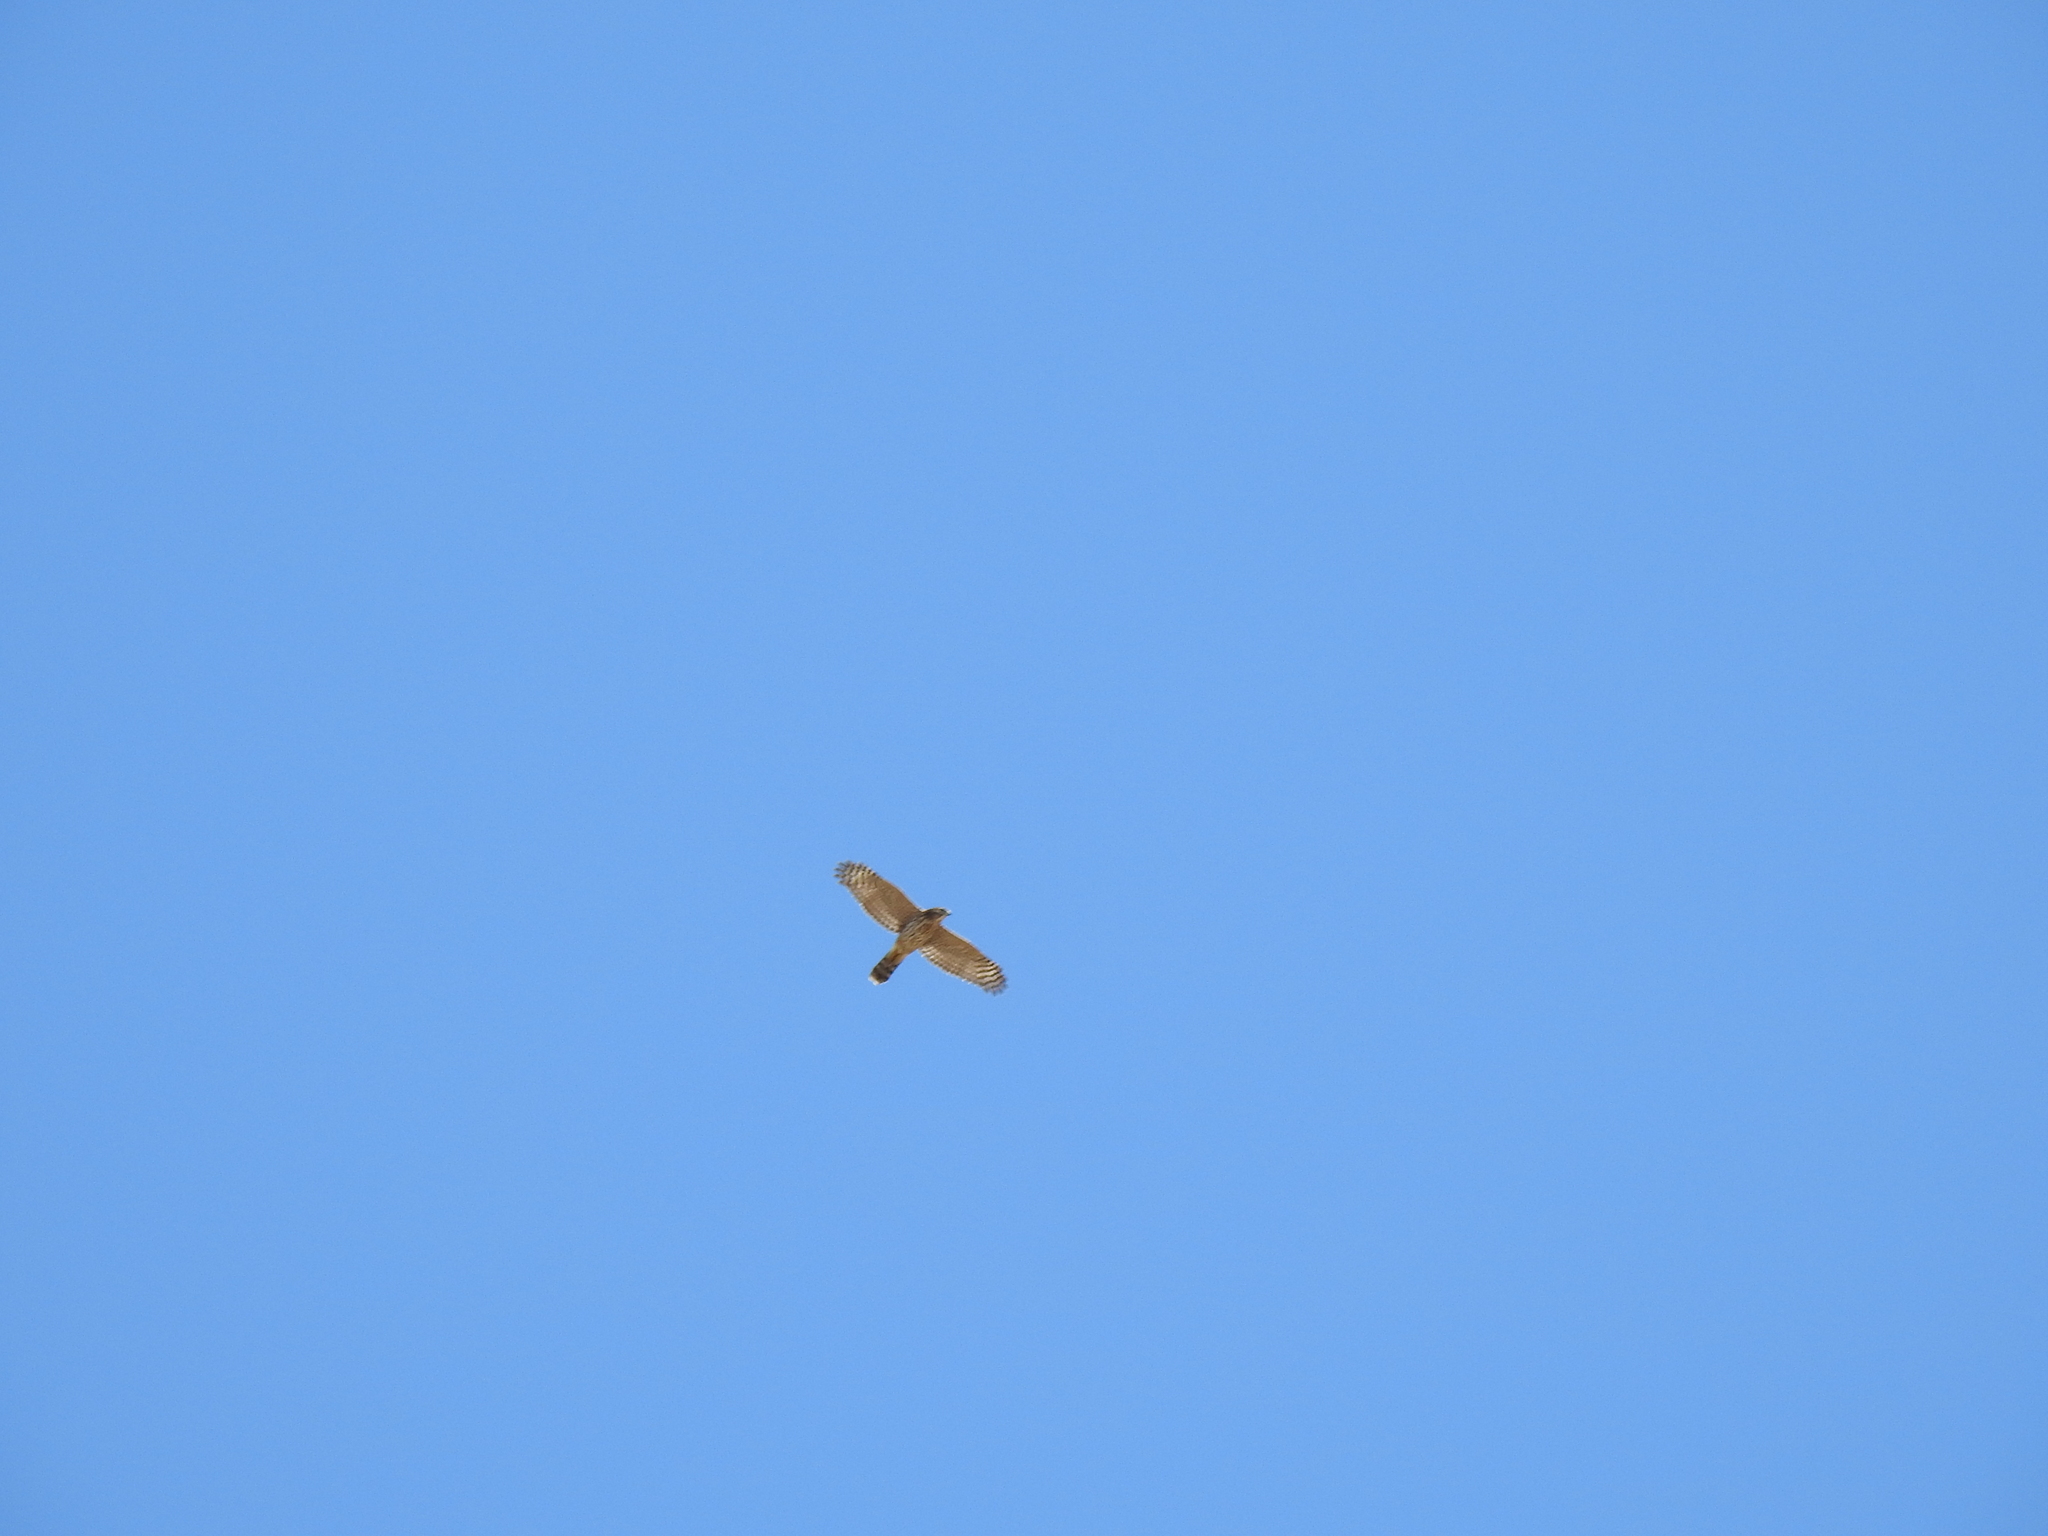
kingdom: Animalia
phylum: Chordata
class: Aves
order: Accipitriformes
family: Accipitridae
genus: Buteo
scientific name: Buteo lineatus
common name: Red-shouldered hawk
